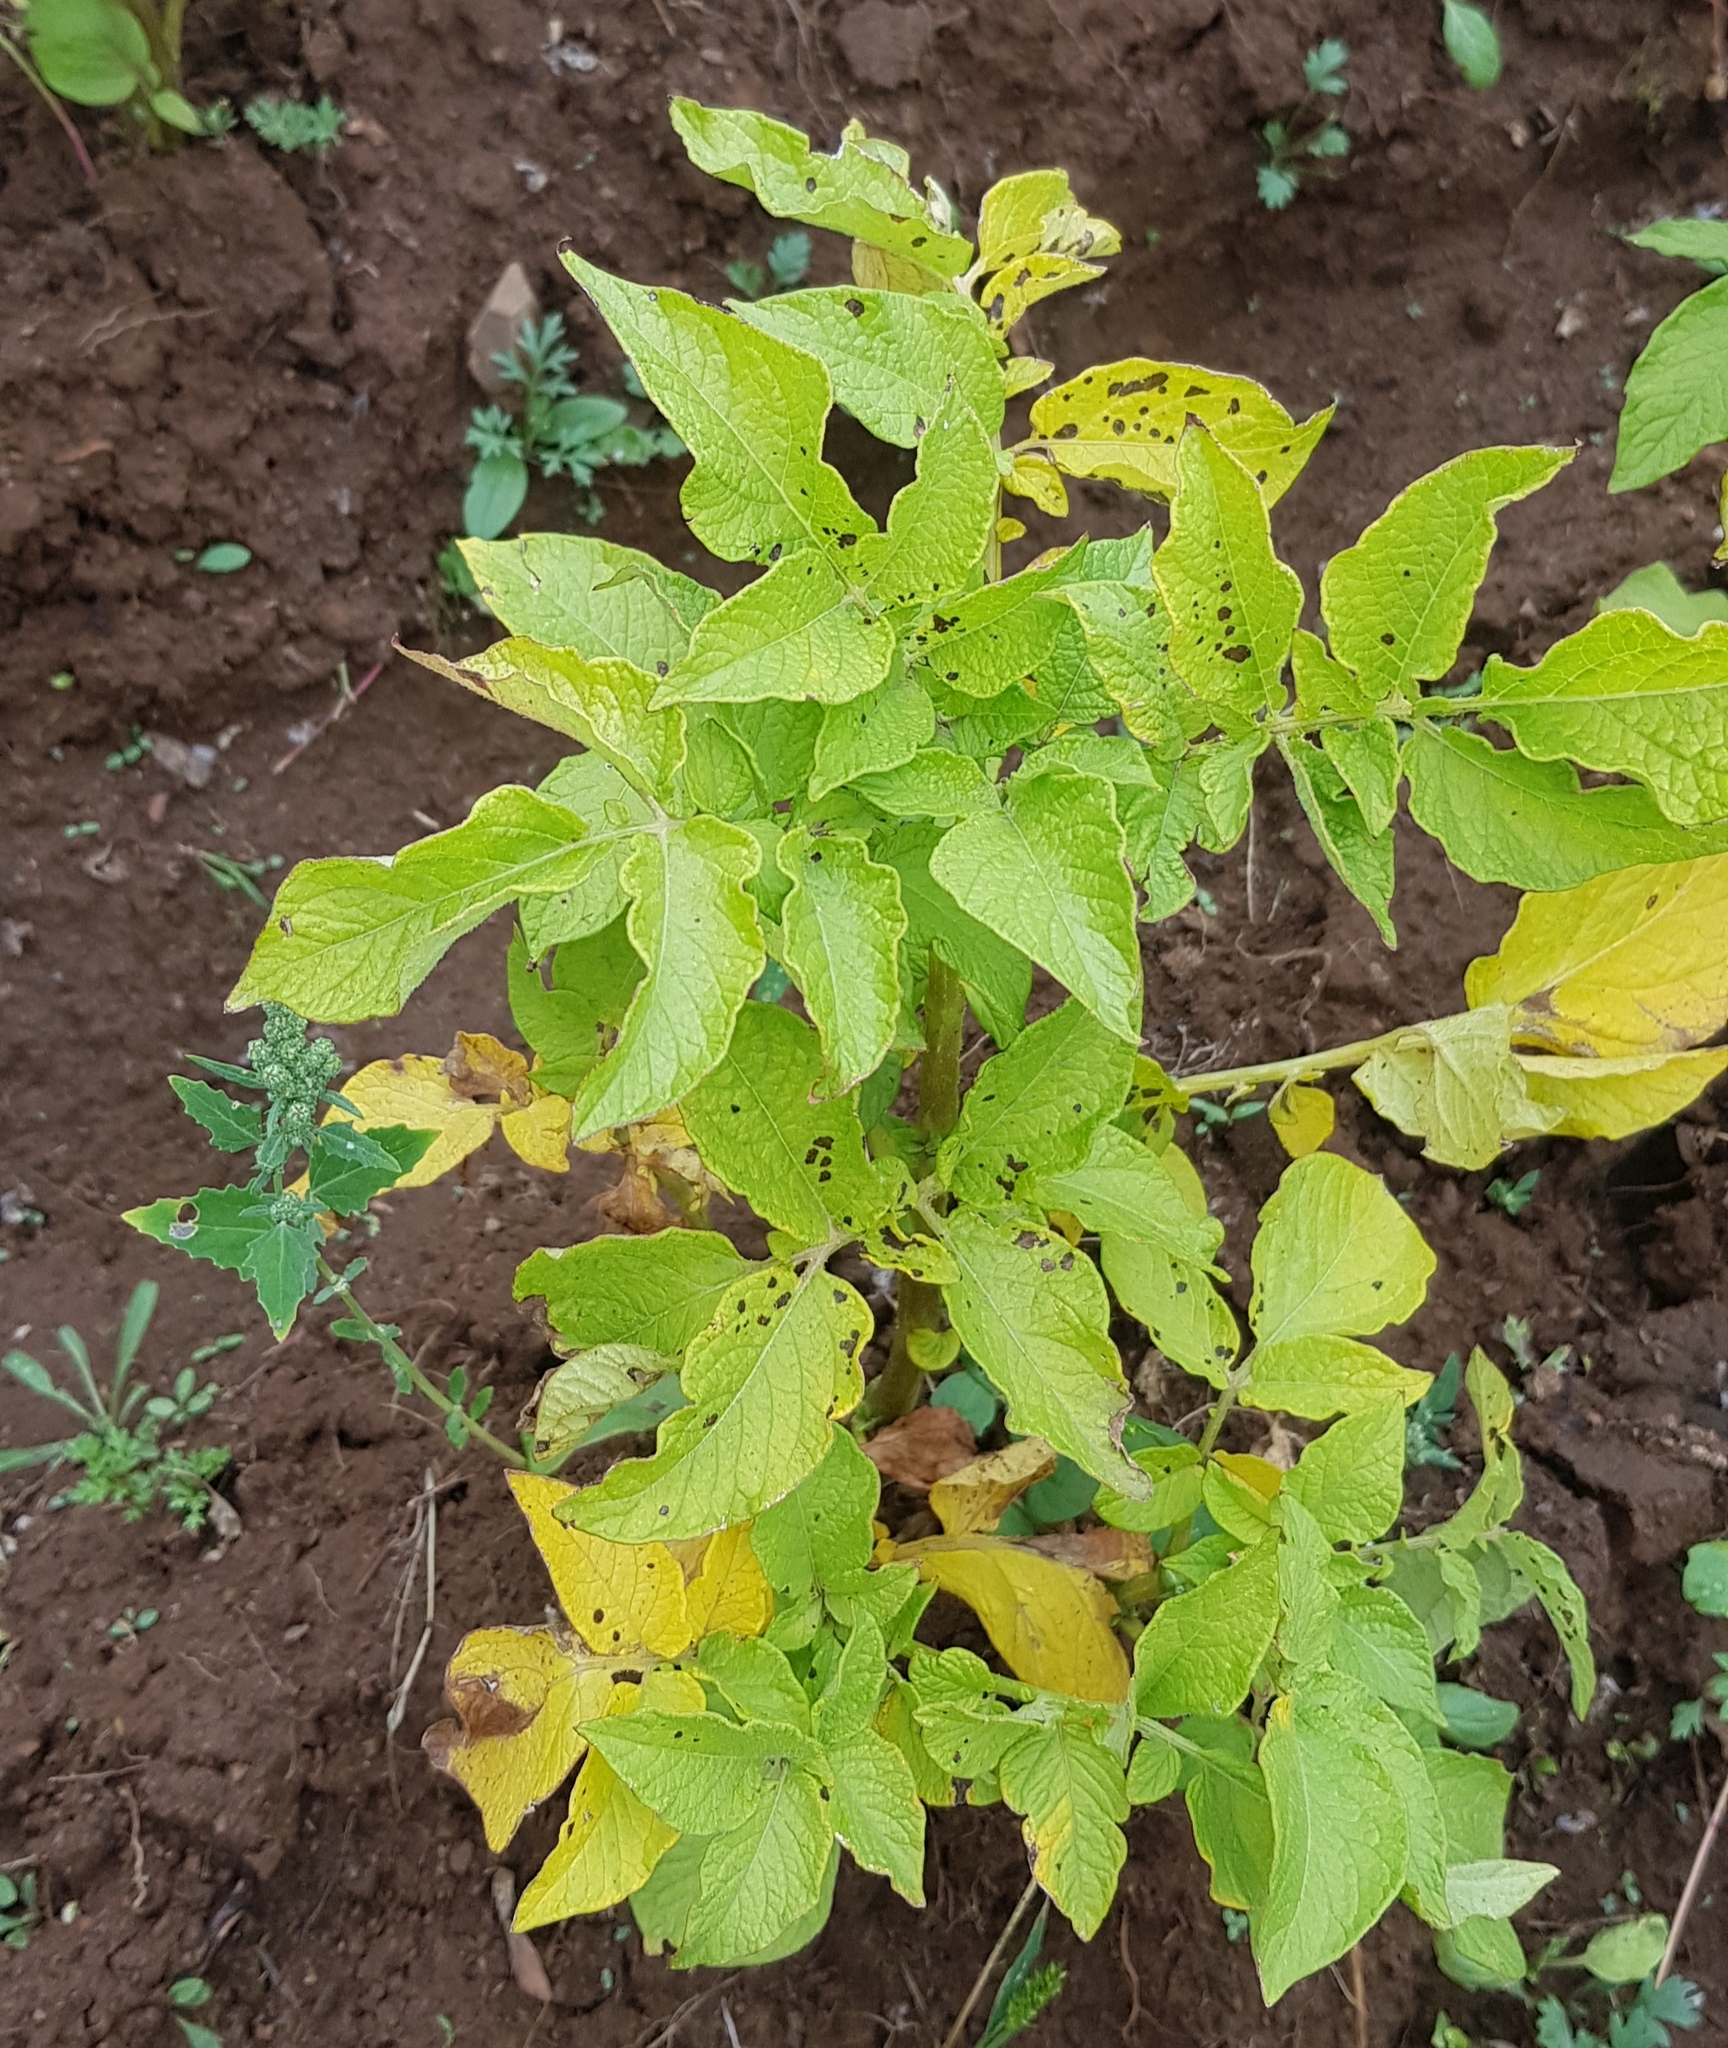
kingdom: Plantae
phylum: Tracheophyta
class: Magnoliopsida
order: Solanales
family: Solanaceae
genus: Solanum
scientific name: Solanum tuberosum
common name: Potato
